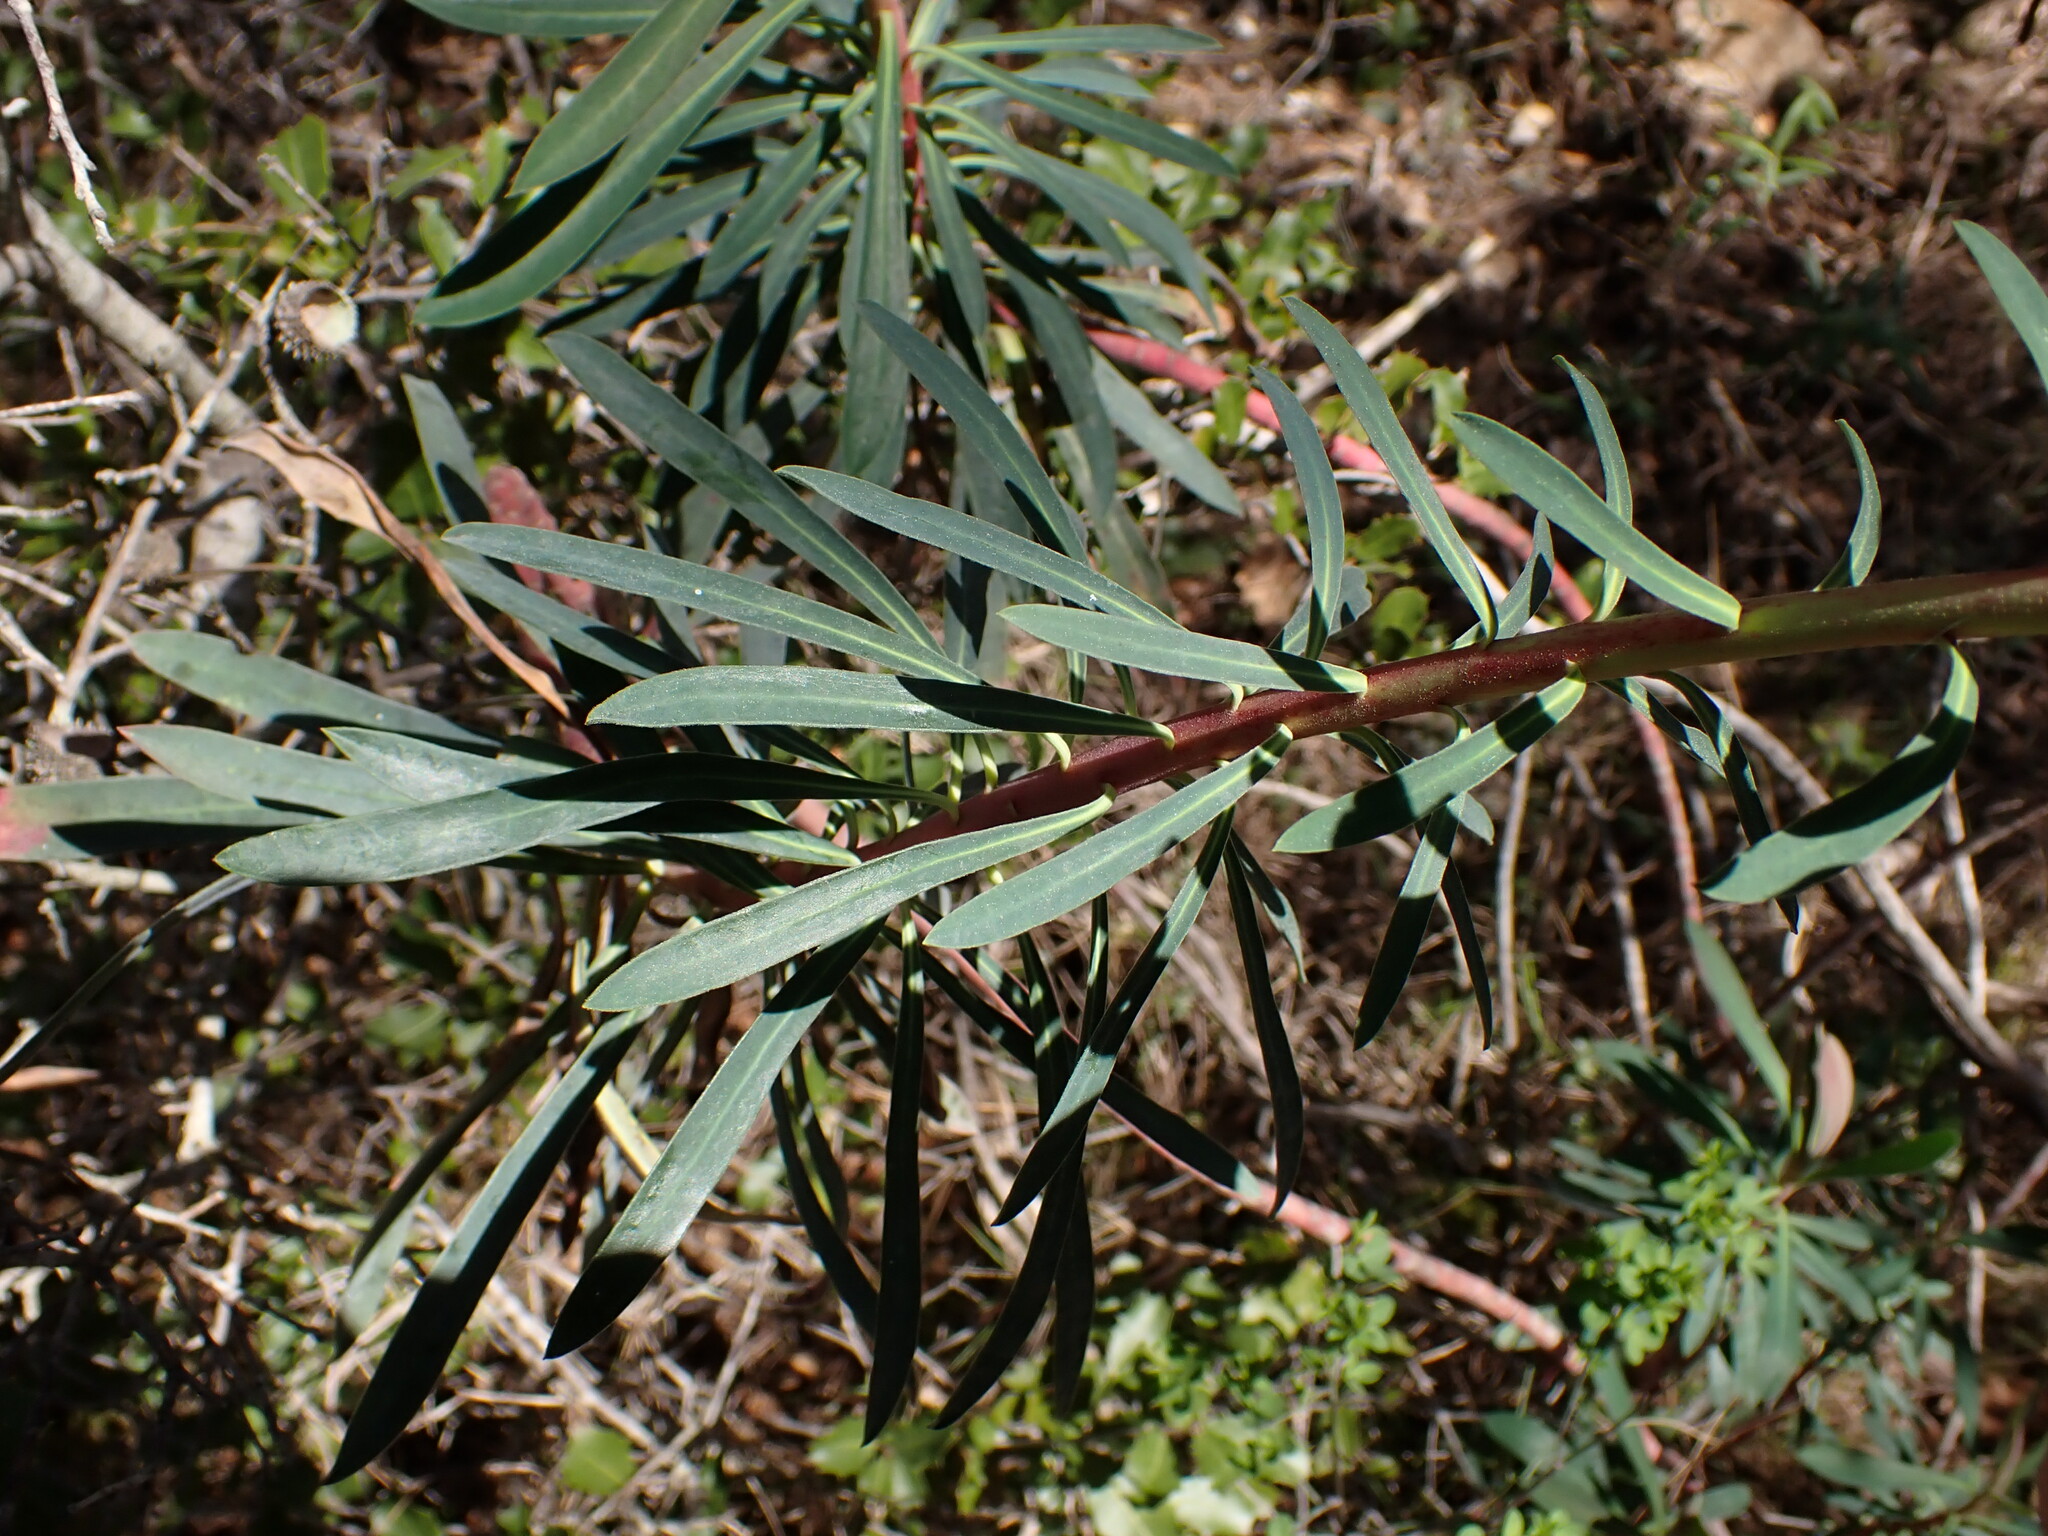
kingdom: Plantae
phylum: Tracheophyta
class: Magnoliopsida
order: Malpighiales
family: Euphorbiaceae
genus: Euphorbia
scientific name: Euphorbia characias
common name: Mediterranean spurge
